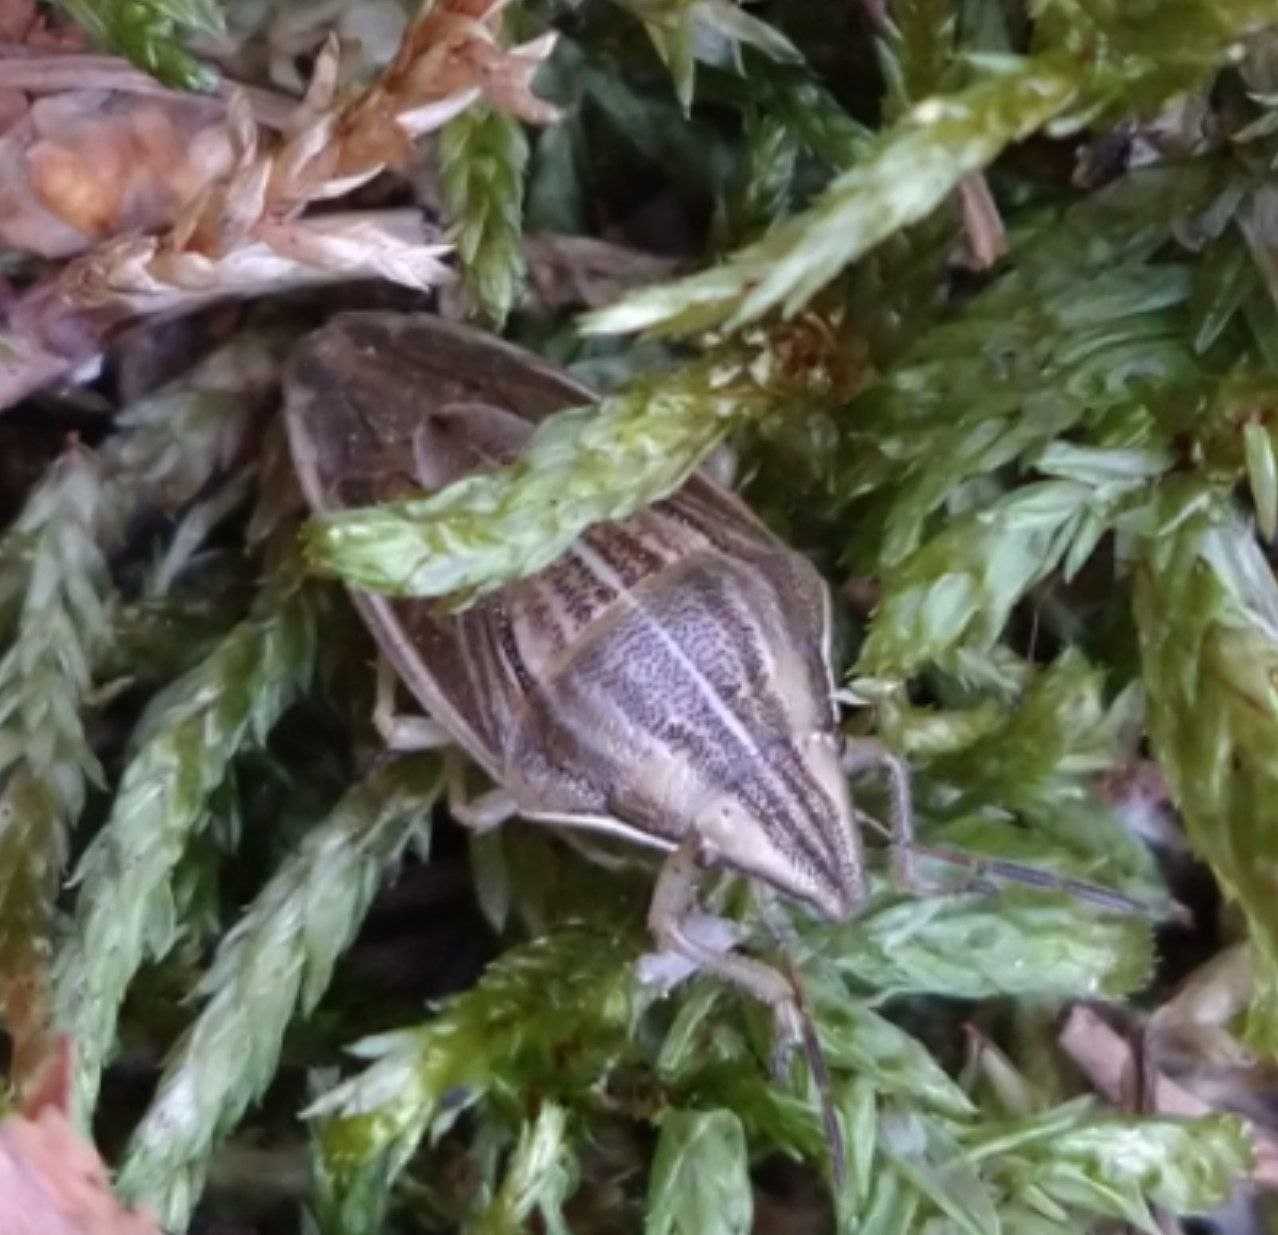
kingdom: Animalia
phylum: Arthropoda
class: Insecta
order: Hemiptera
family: Pentatomidae
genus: Aelia
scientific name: Aelia acuminata
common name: Bishop's mitre
